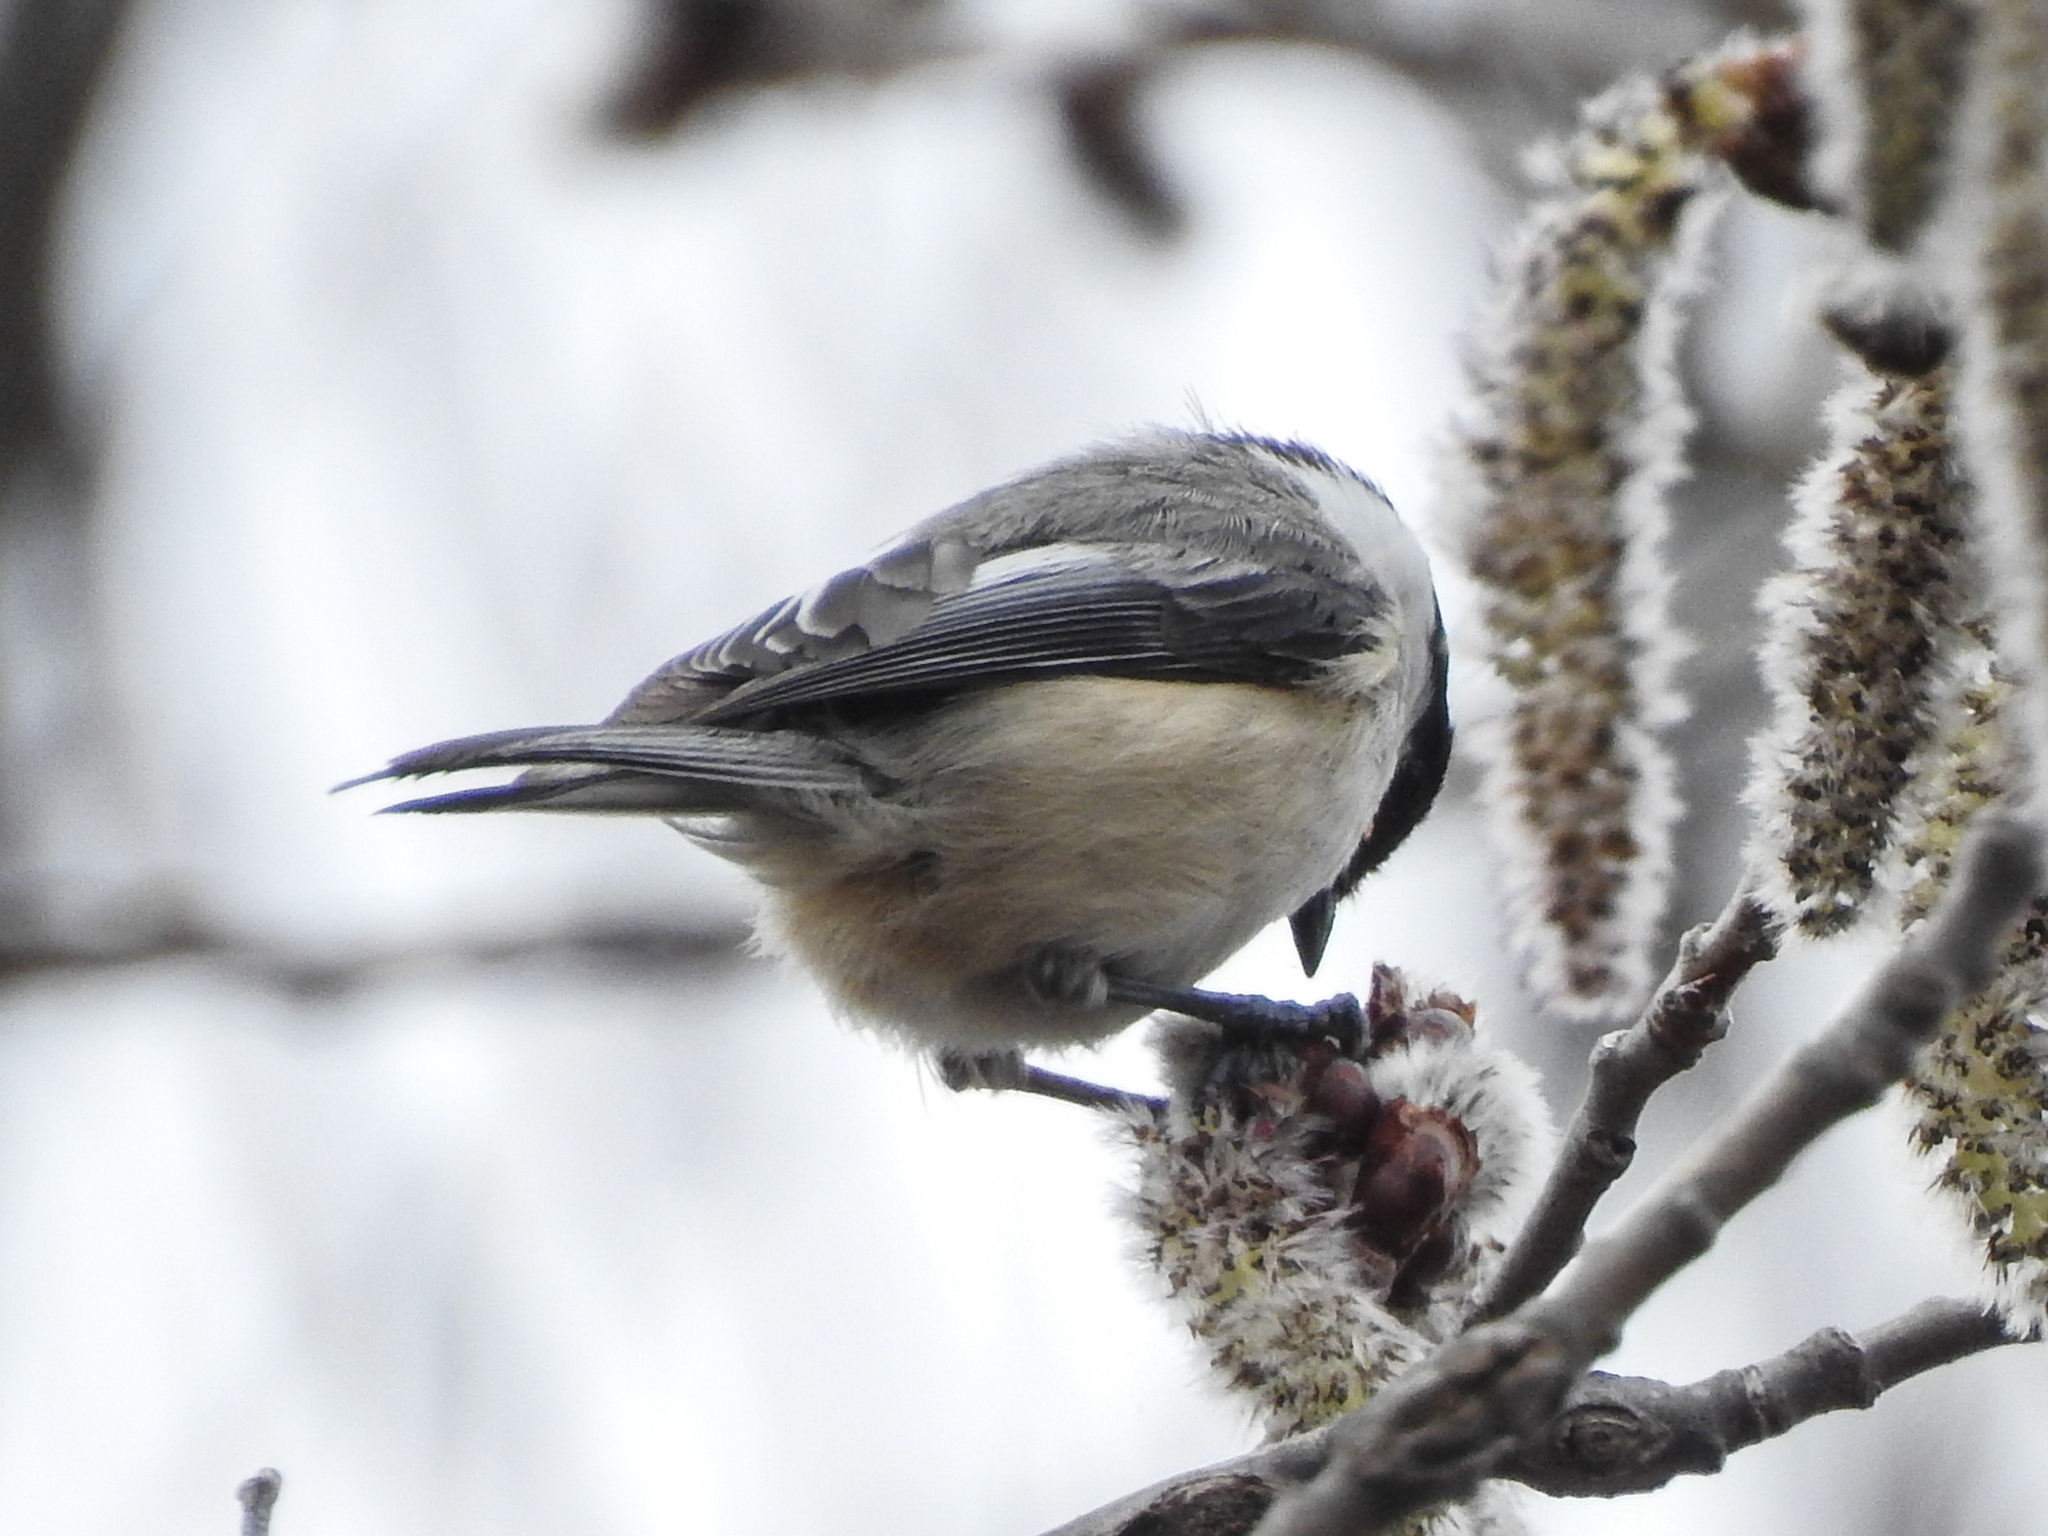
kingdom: Animalia
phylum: Chordata
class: Aves
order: Passeriformes
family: Paridae
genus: Poecile
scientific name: Poecile atricapillus
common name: Black-capped chickadee
